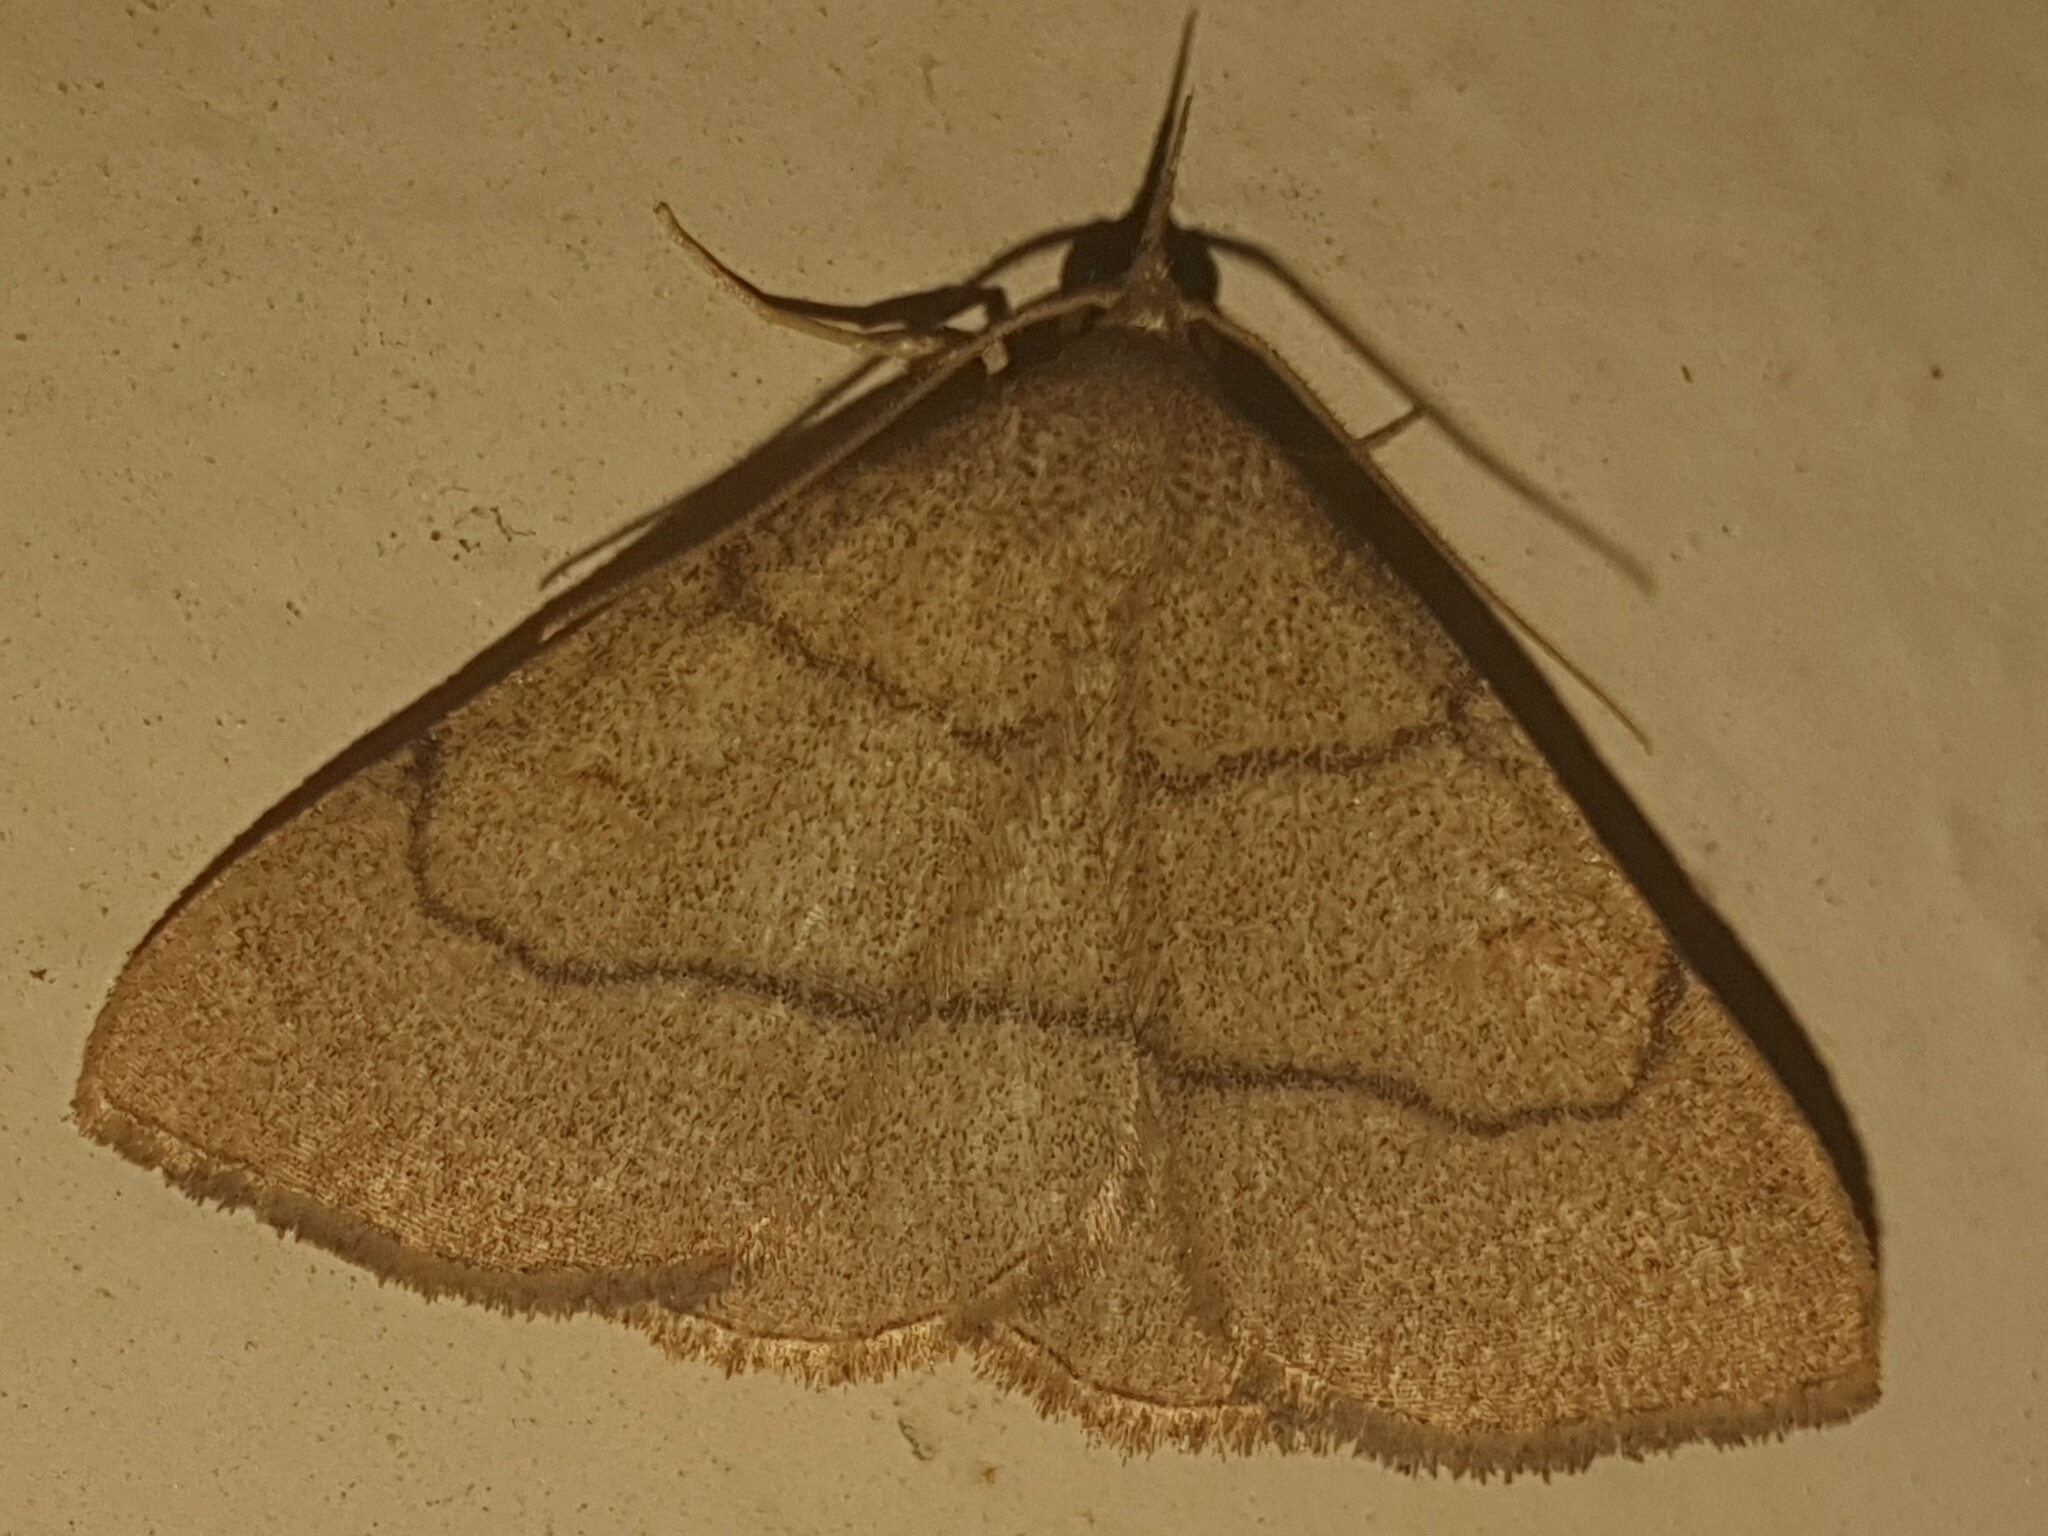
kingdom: Animalia
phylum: Arthropoda
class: Insecta
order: Lepidoptera
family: Erebidae
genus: Paracolax
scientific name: Paracolax tristalis
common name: Clay fan-foot
